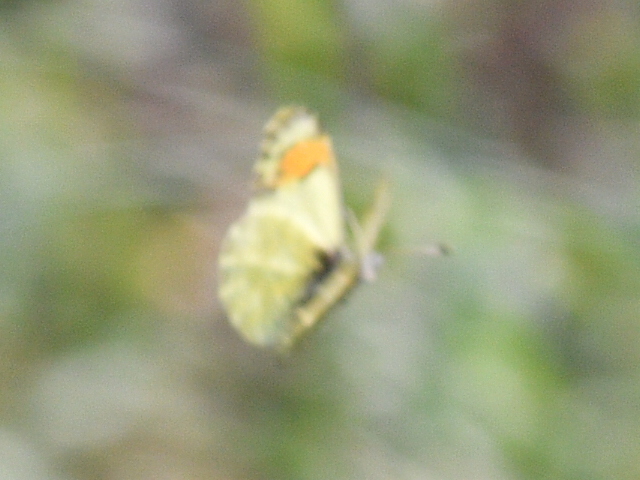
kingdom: Animalia
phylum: Arthropoda
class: Insecta
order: Lepidoptera
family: Pieridae
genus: Anthocharis
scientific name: Anthocharis julia
